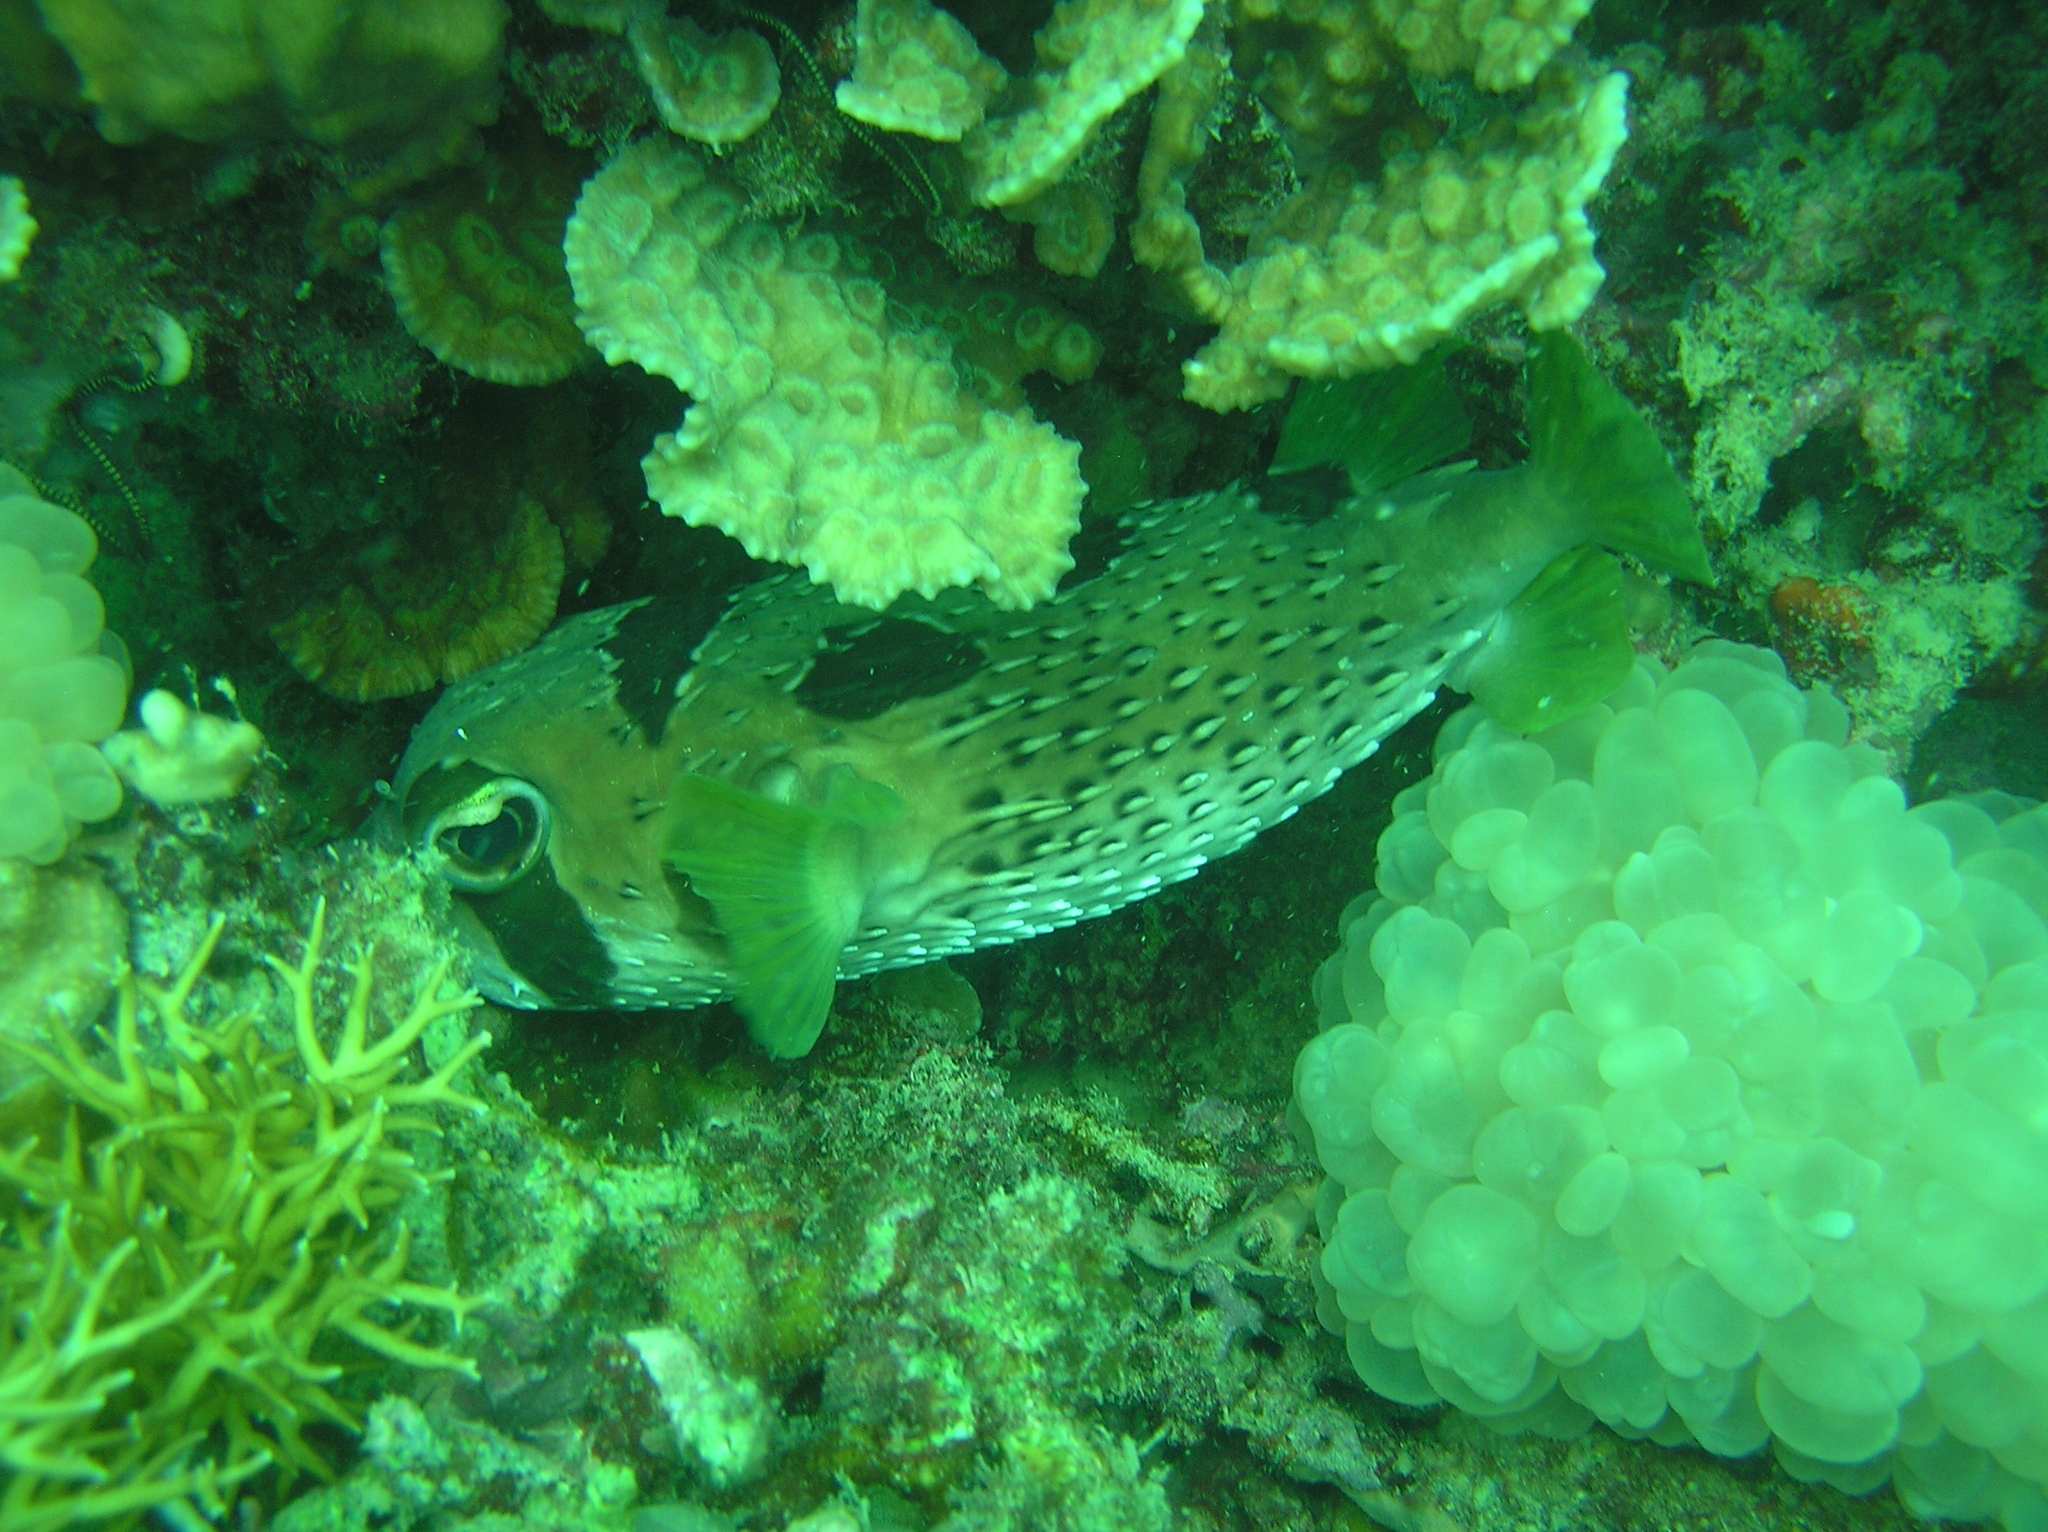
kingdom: Animalia
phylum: Chordata
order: Tetraodontiformes
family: Diodontidae
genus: Diodon
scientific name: Diodon liturosus
